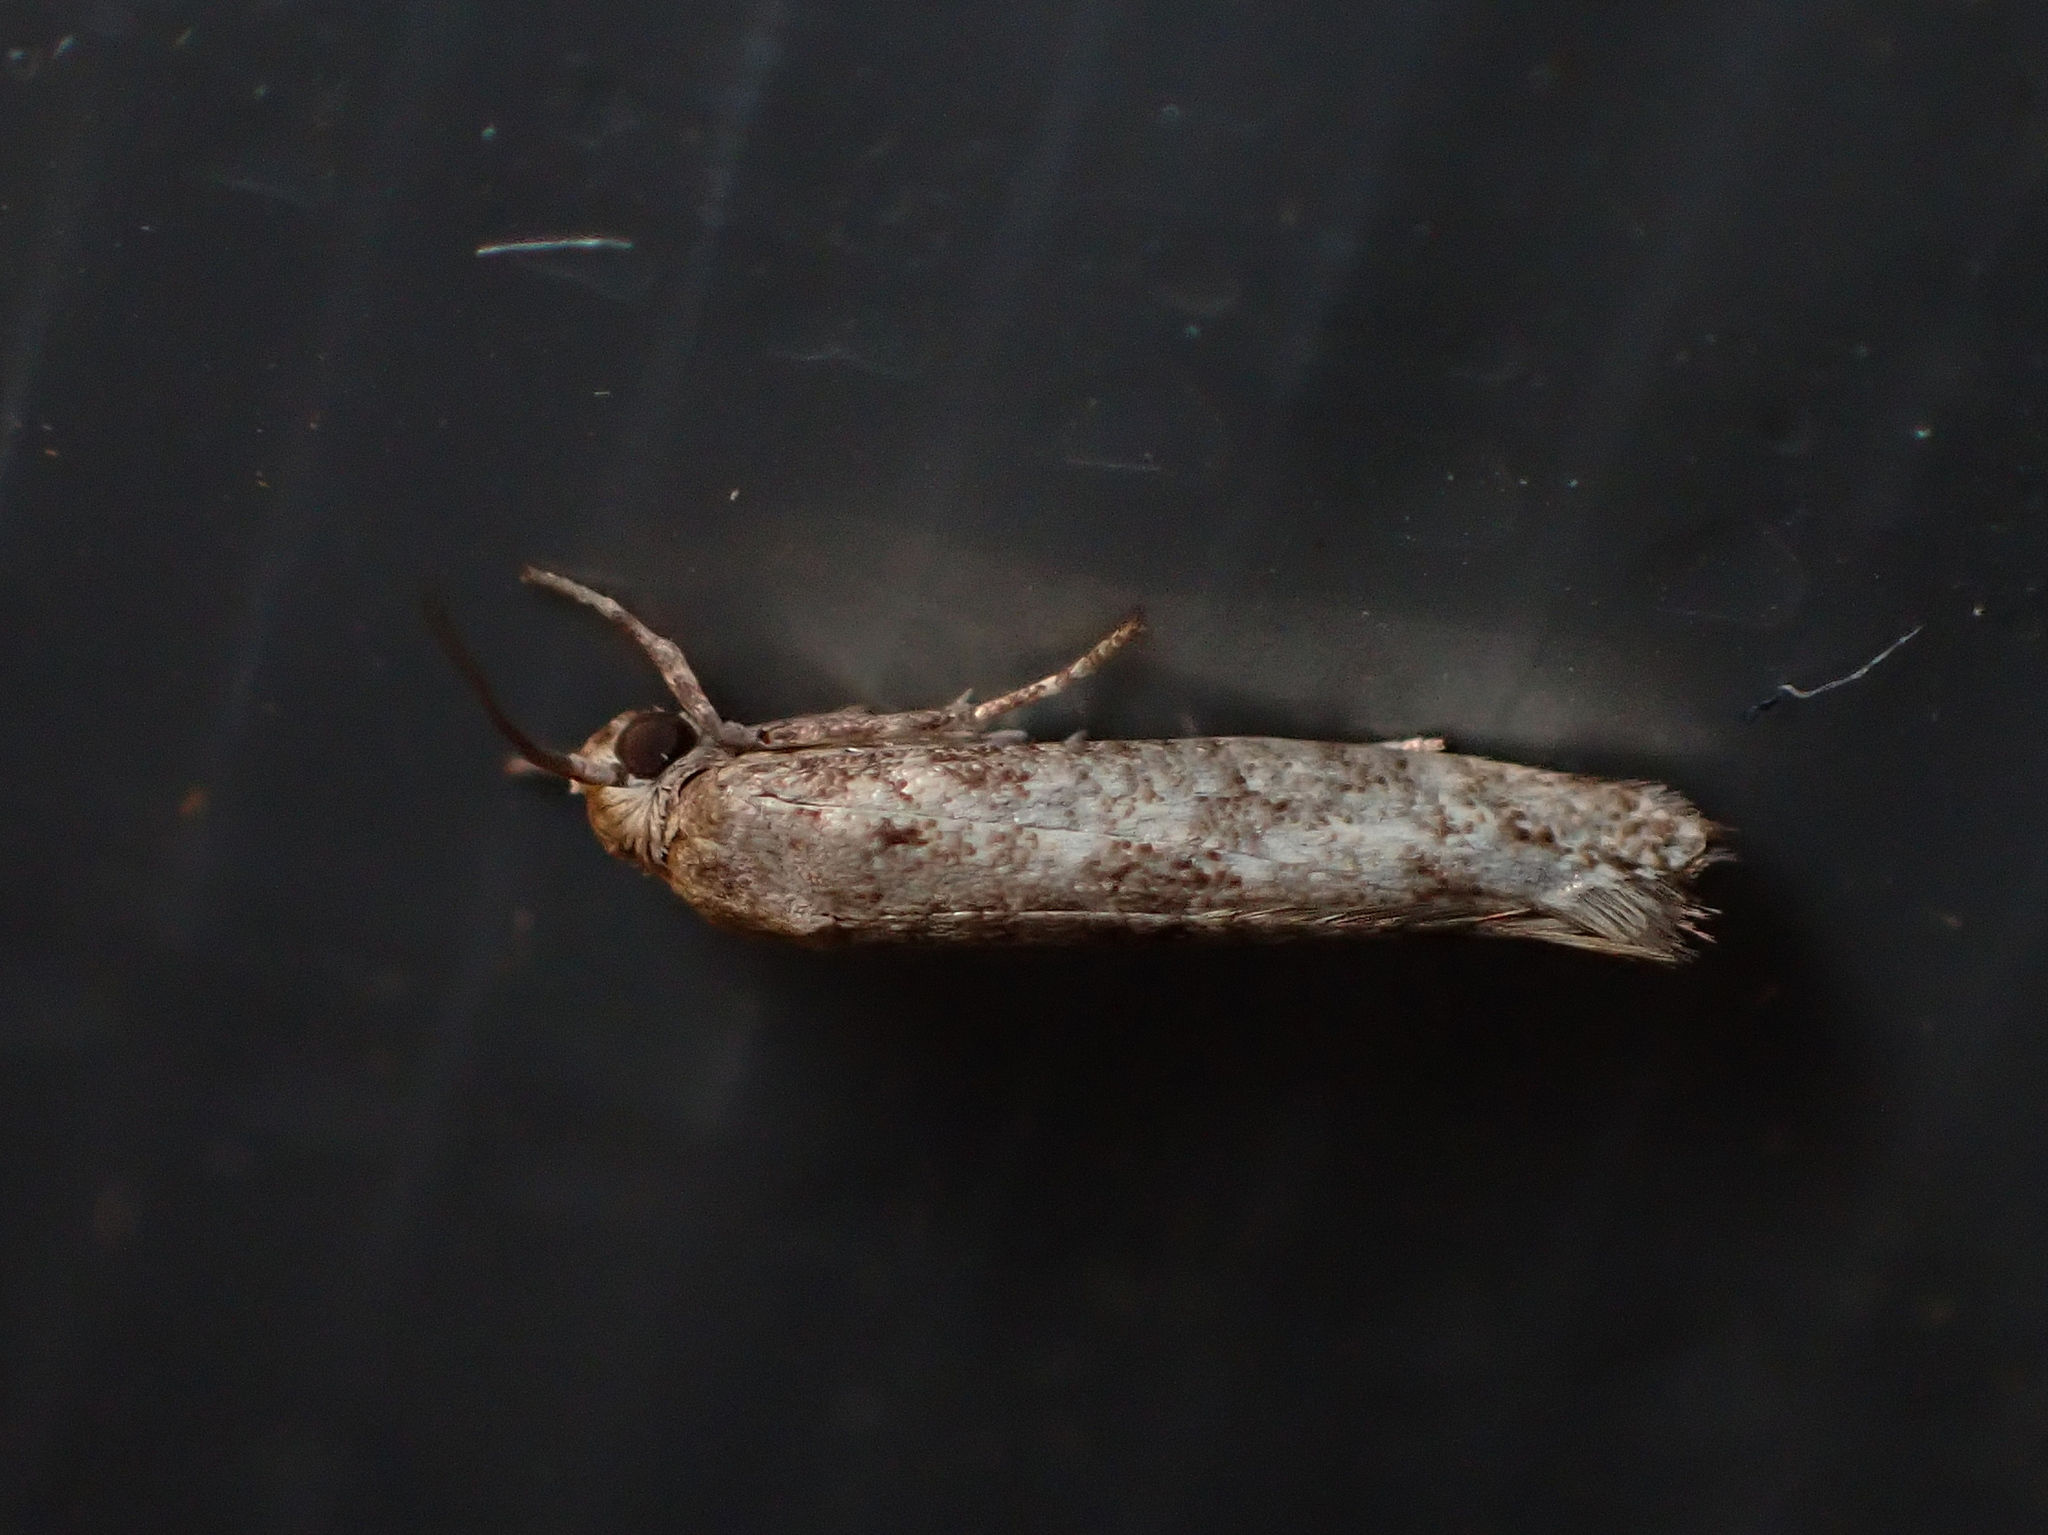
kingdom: Animalia
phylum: Arthropoda
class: Insecta
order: Lepidoptera
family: Praydidae
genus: Prays
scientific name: Prays nephelomima
